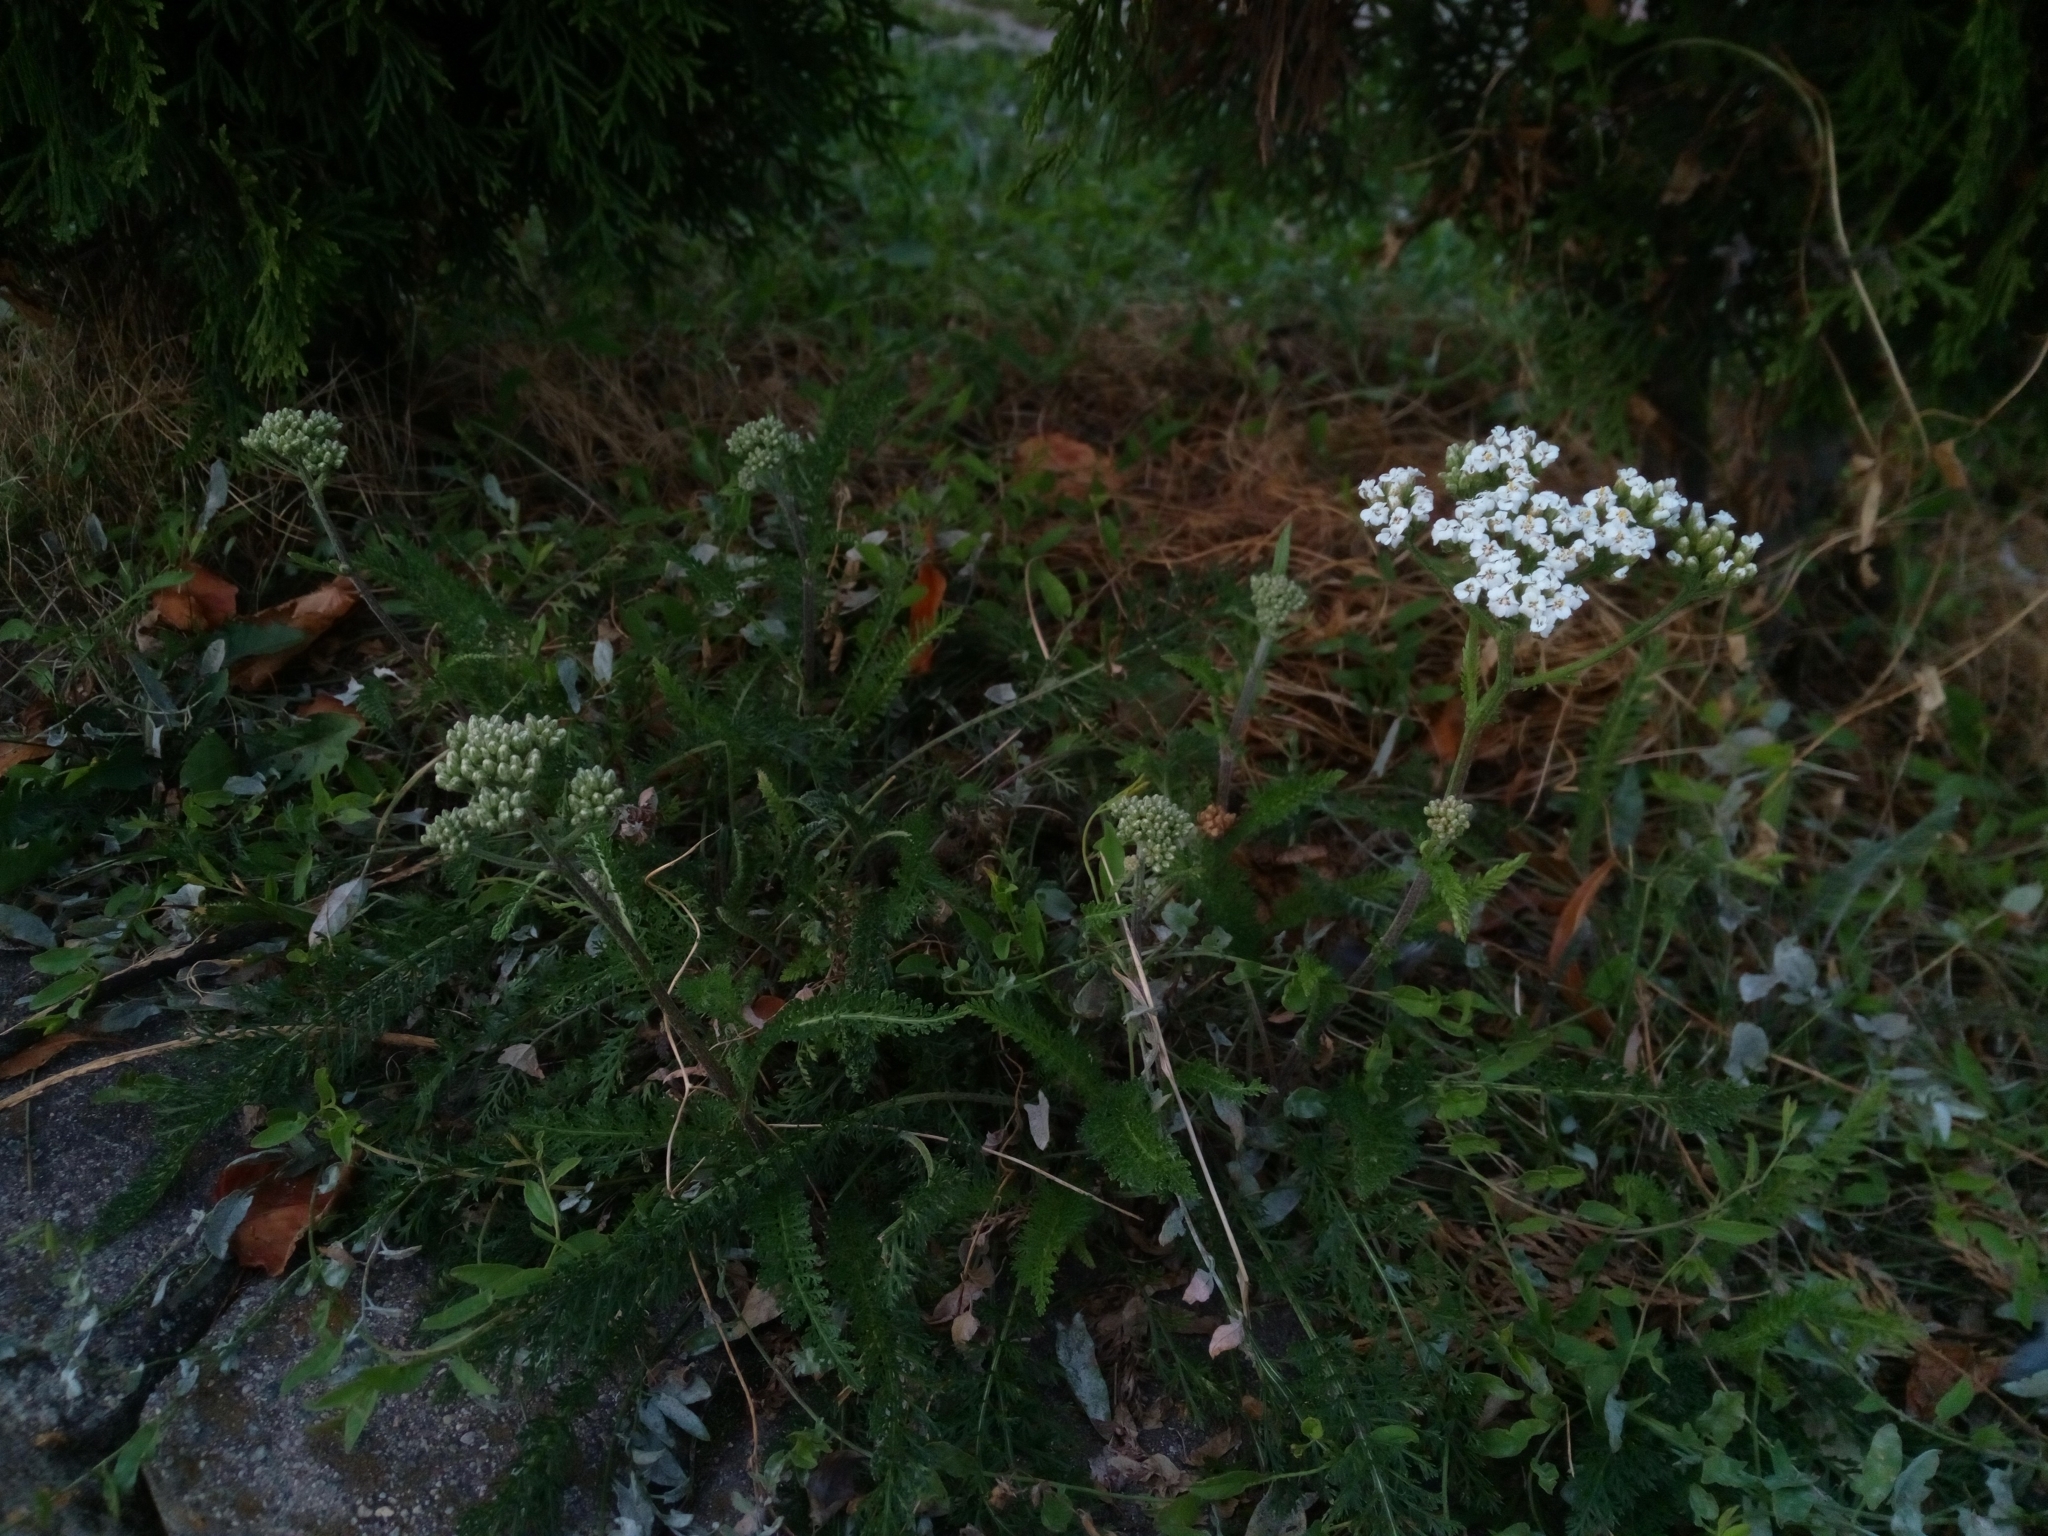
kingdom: Plantae
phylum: Tracheophyta
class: Magnoliopsida
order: Asterales
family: Asteraceae
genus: Achillea
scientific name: Achillea millefolium
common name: Yarrow
